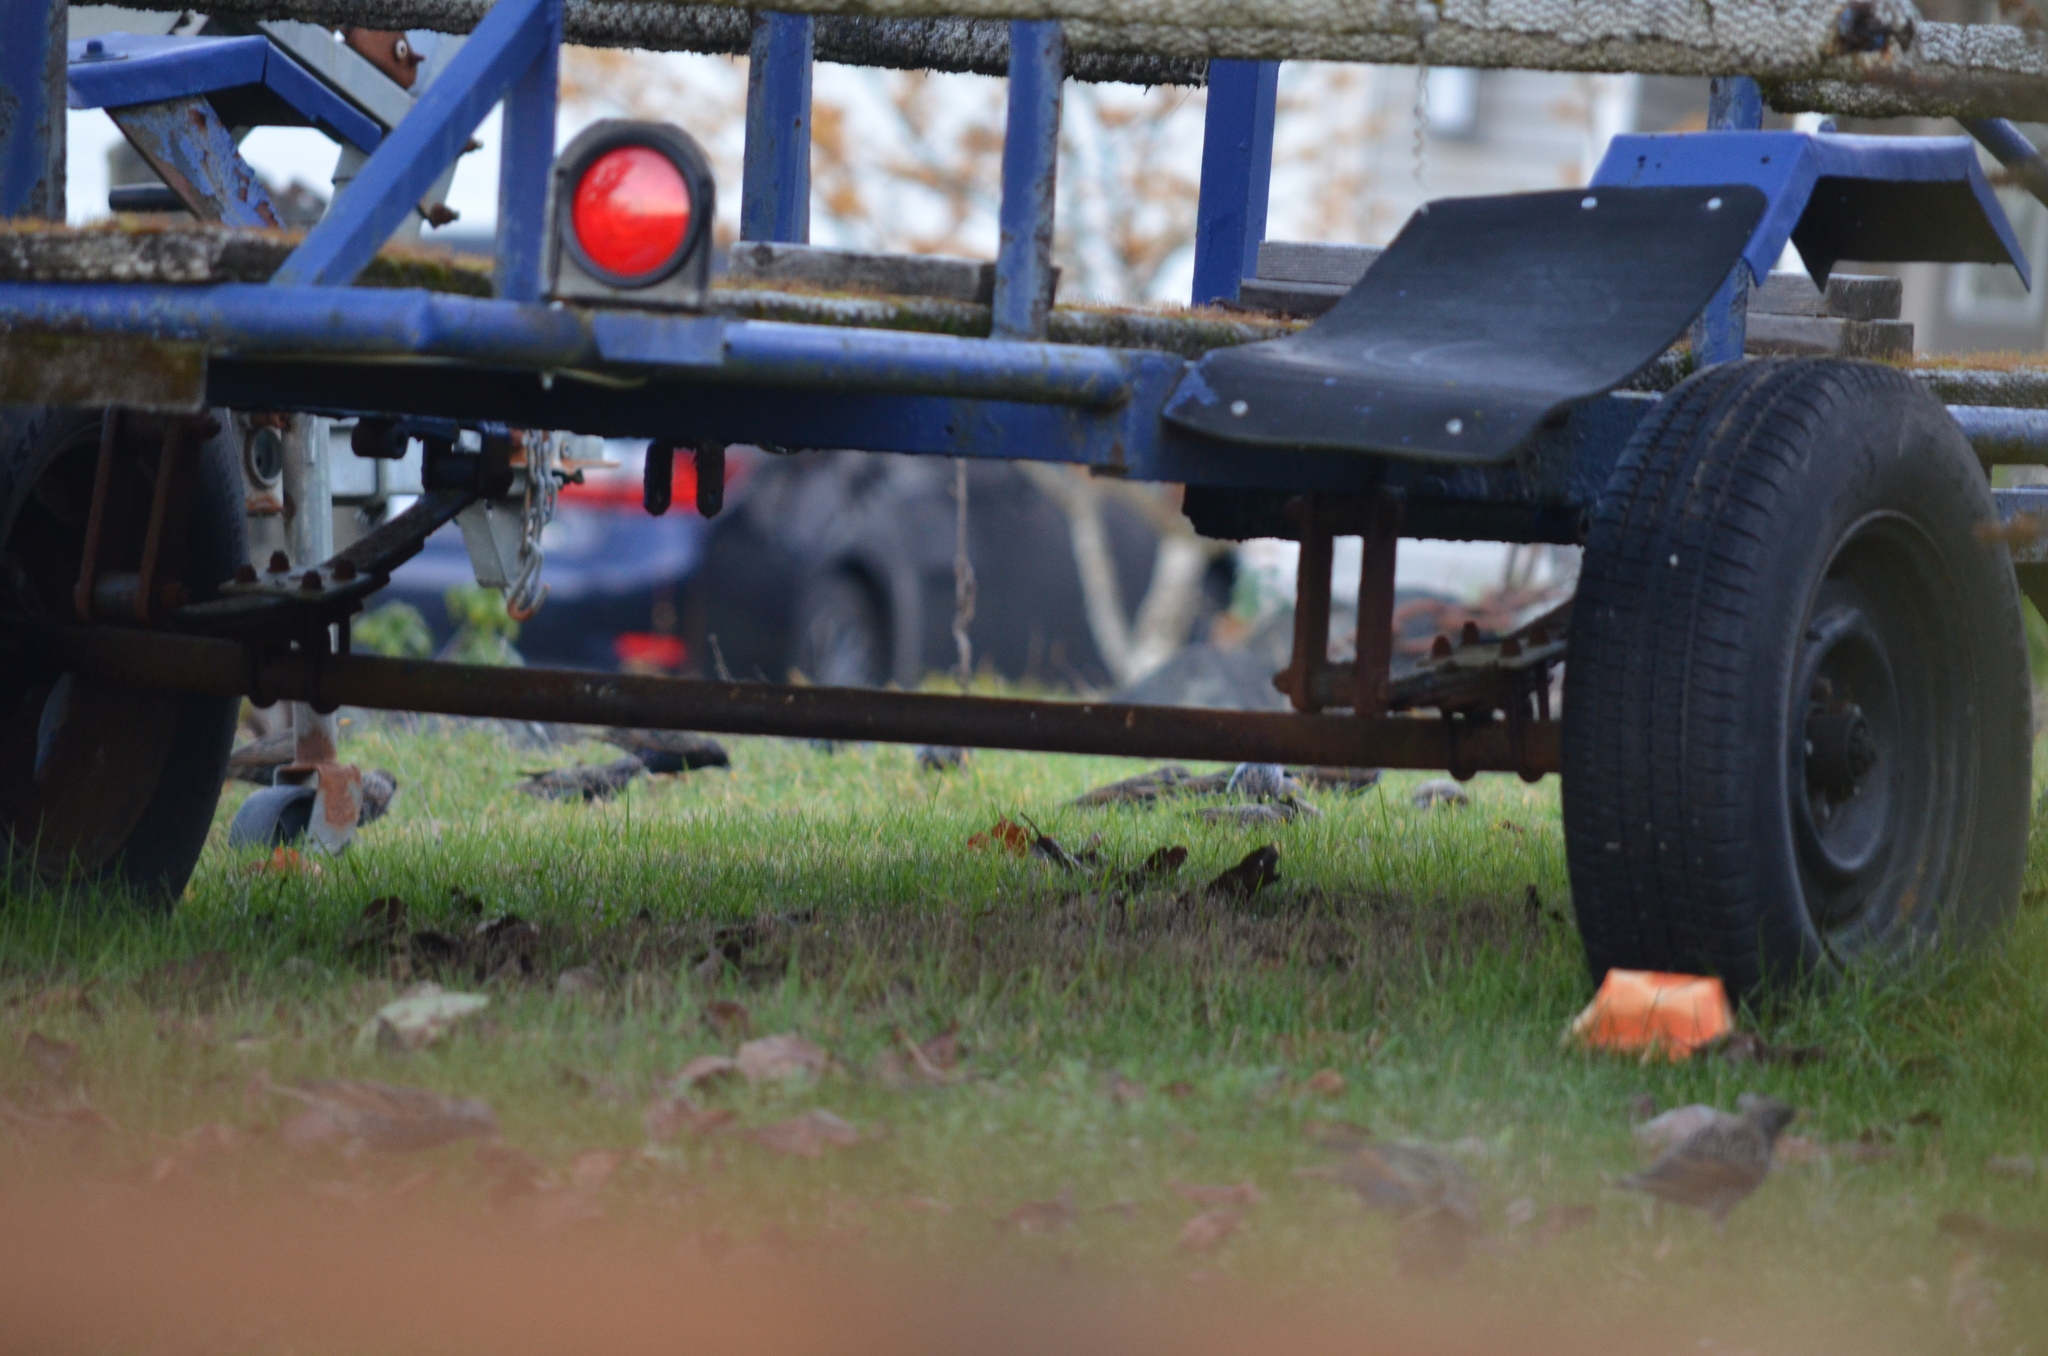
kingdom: Animalia
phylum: Chordata
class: Aves
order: Passeriformes
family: Sturnidae
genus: Sturnus
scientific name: Sturnus vulgaris
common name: Common starling
